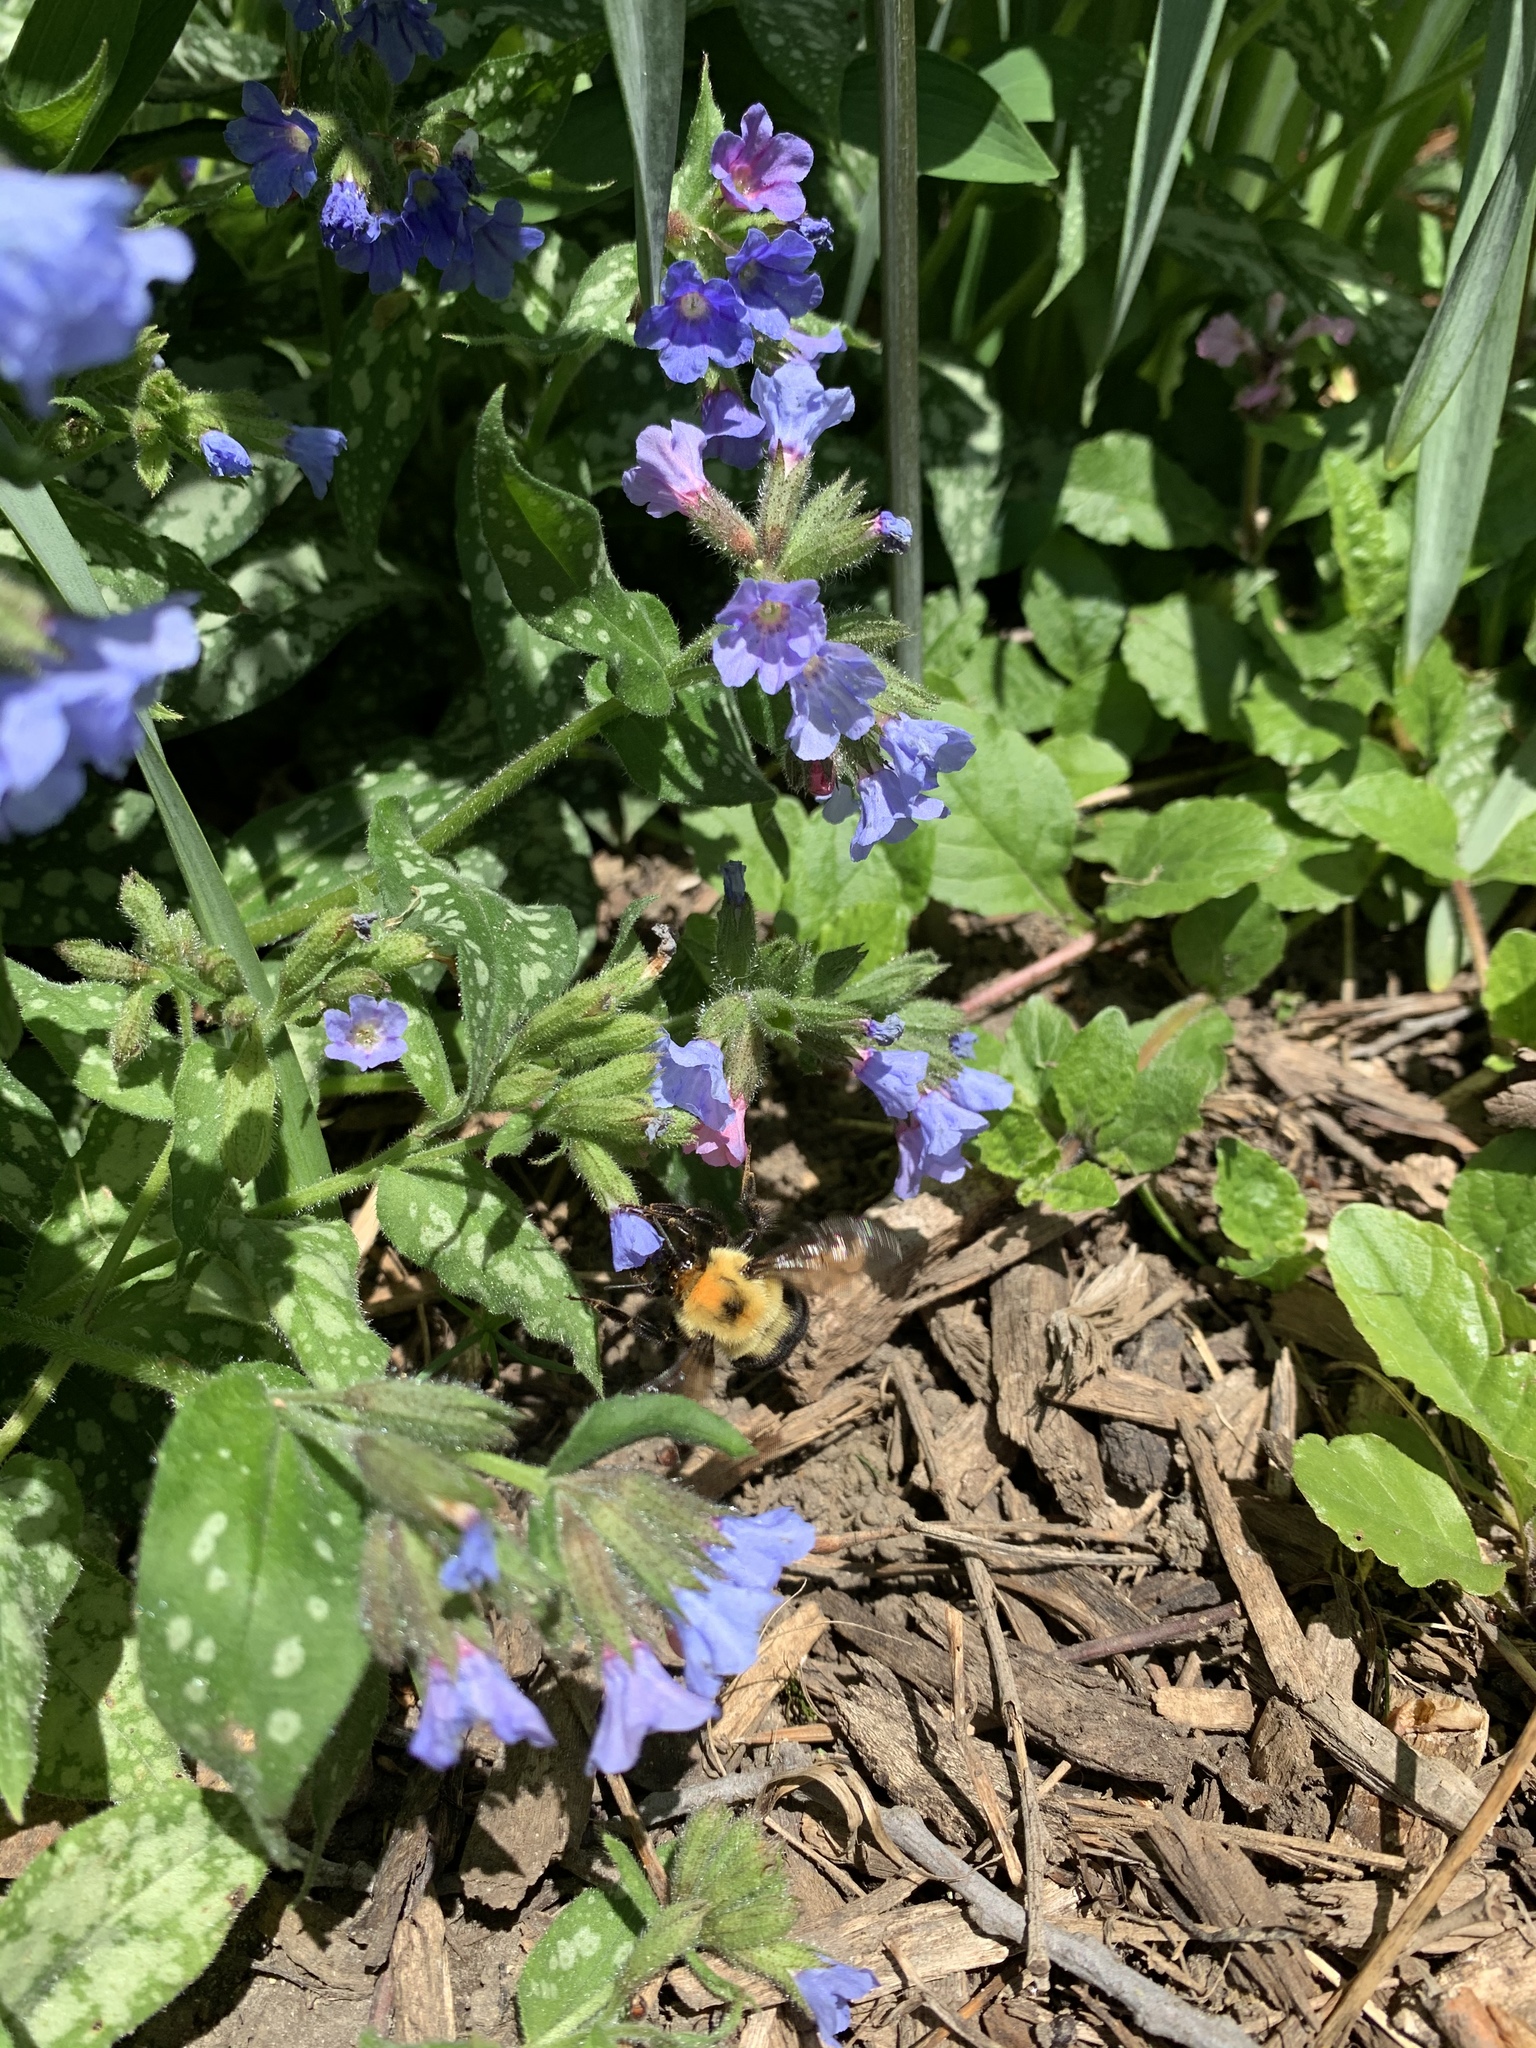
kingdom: Animalia
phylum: Arthropoda
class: Insecta
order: Hymenoptera
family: Apidae
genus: Bombus
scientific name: Bombus bimaculatus
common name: Two-spotted bumble bee
